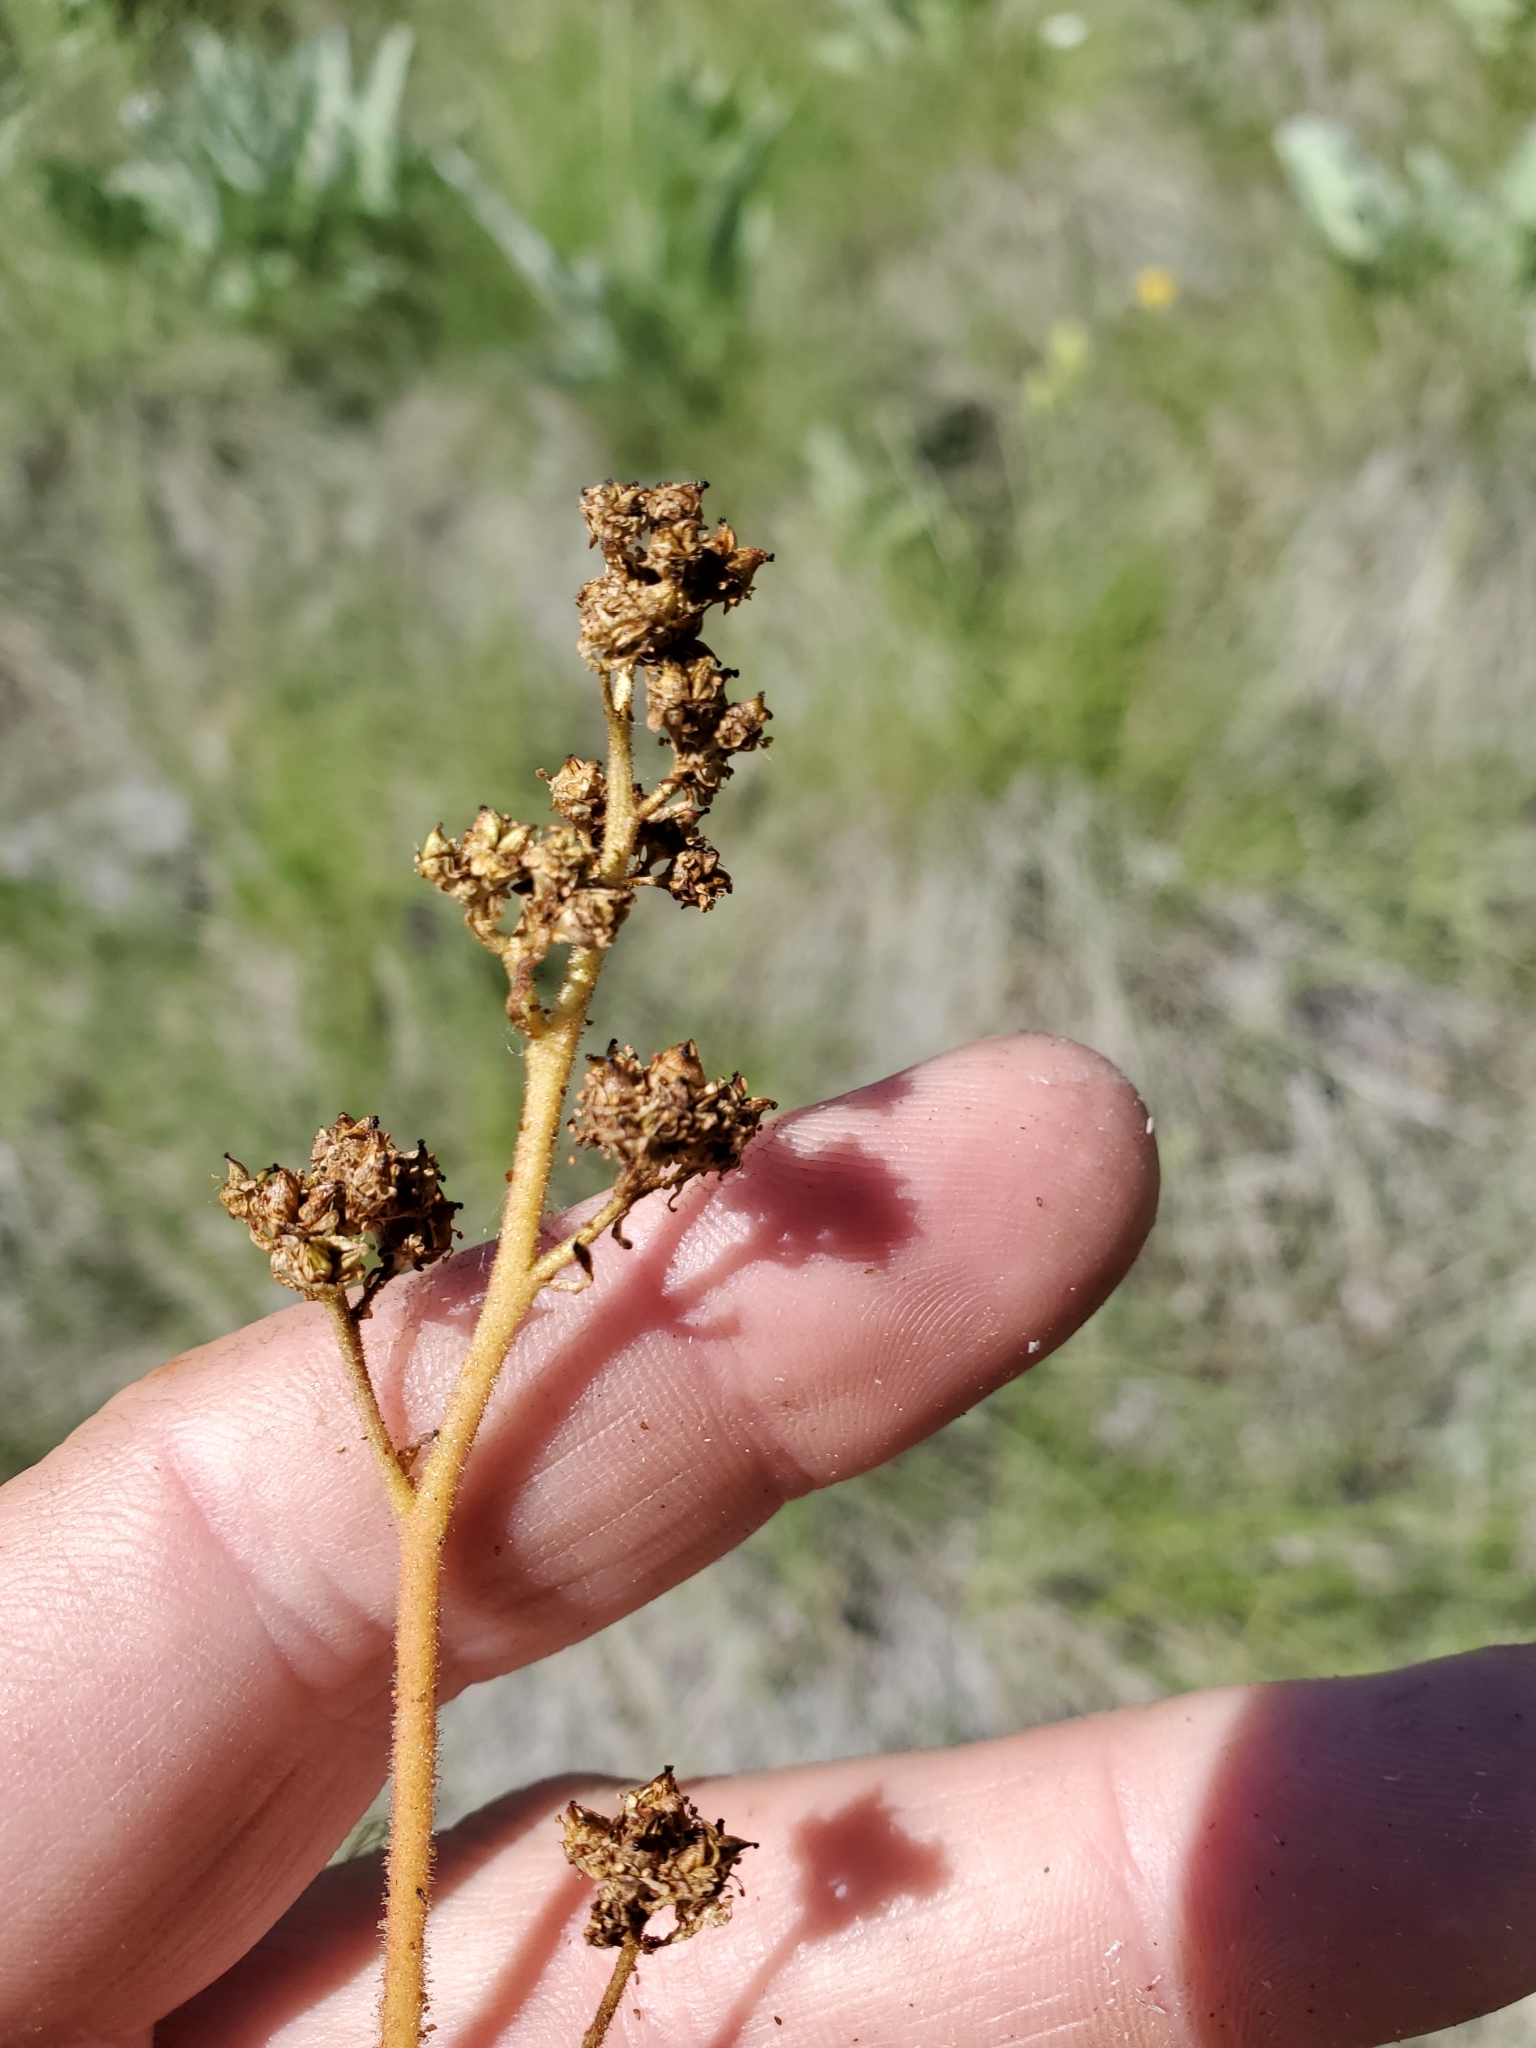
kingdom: Plantae
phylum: Tracheophyta
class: Magnoliopsida
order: Saxifragales
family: Saxifragaceae
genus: Micranthes
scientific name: Micranthes nidifica
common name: Peak saxifrage
